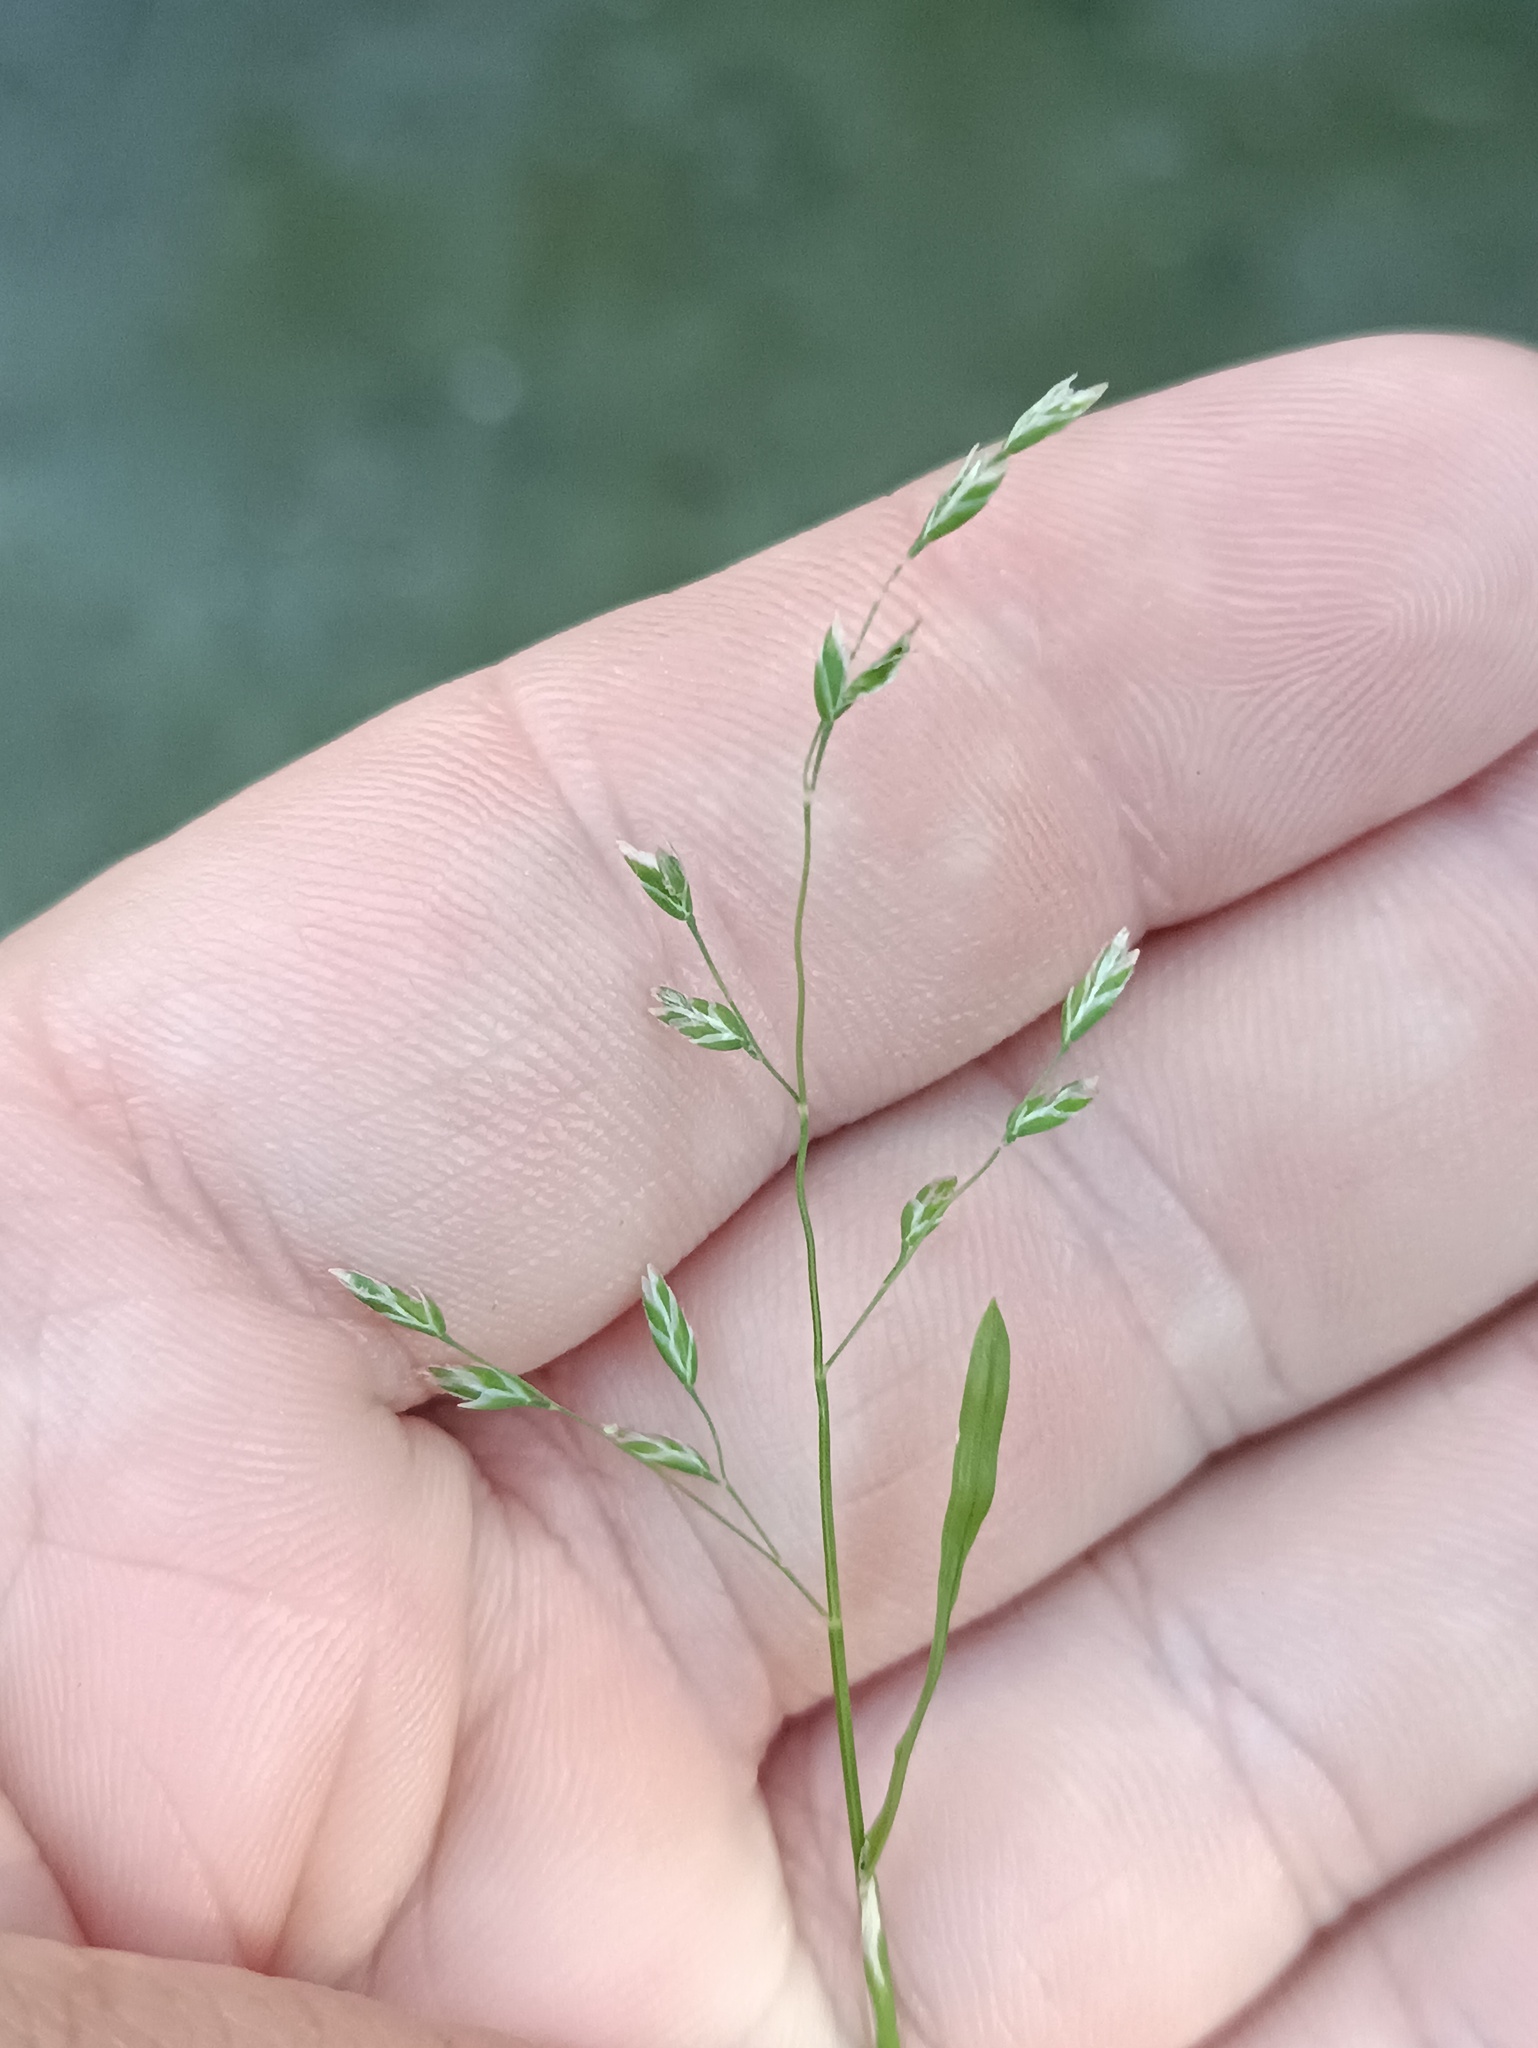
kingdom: Plantae
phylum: Tracheophyta
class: Liliopsida
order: Poales
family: Poaceae
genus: Poa
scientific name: Poa annua
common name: Annual bluegrass
